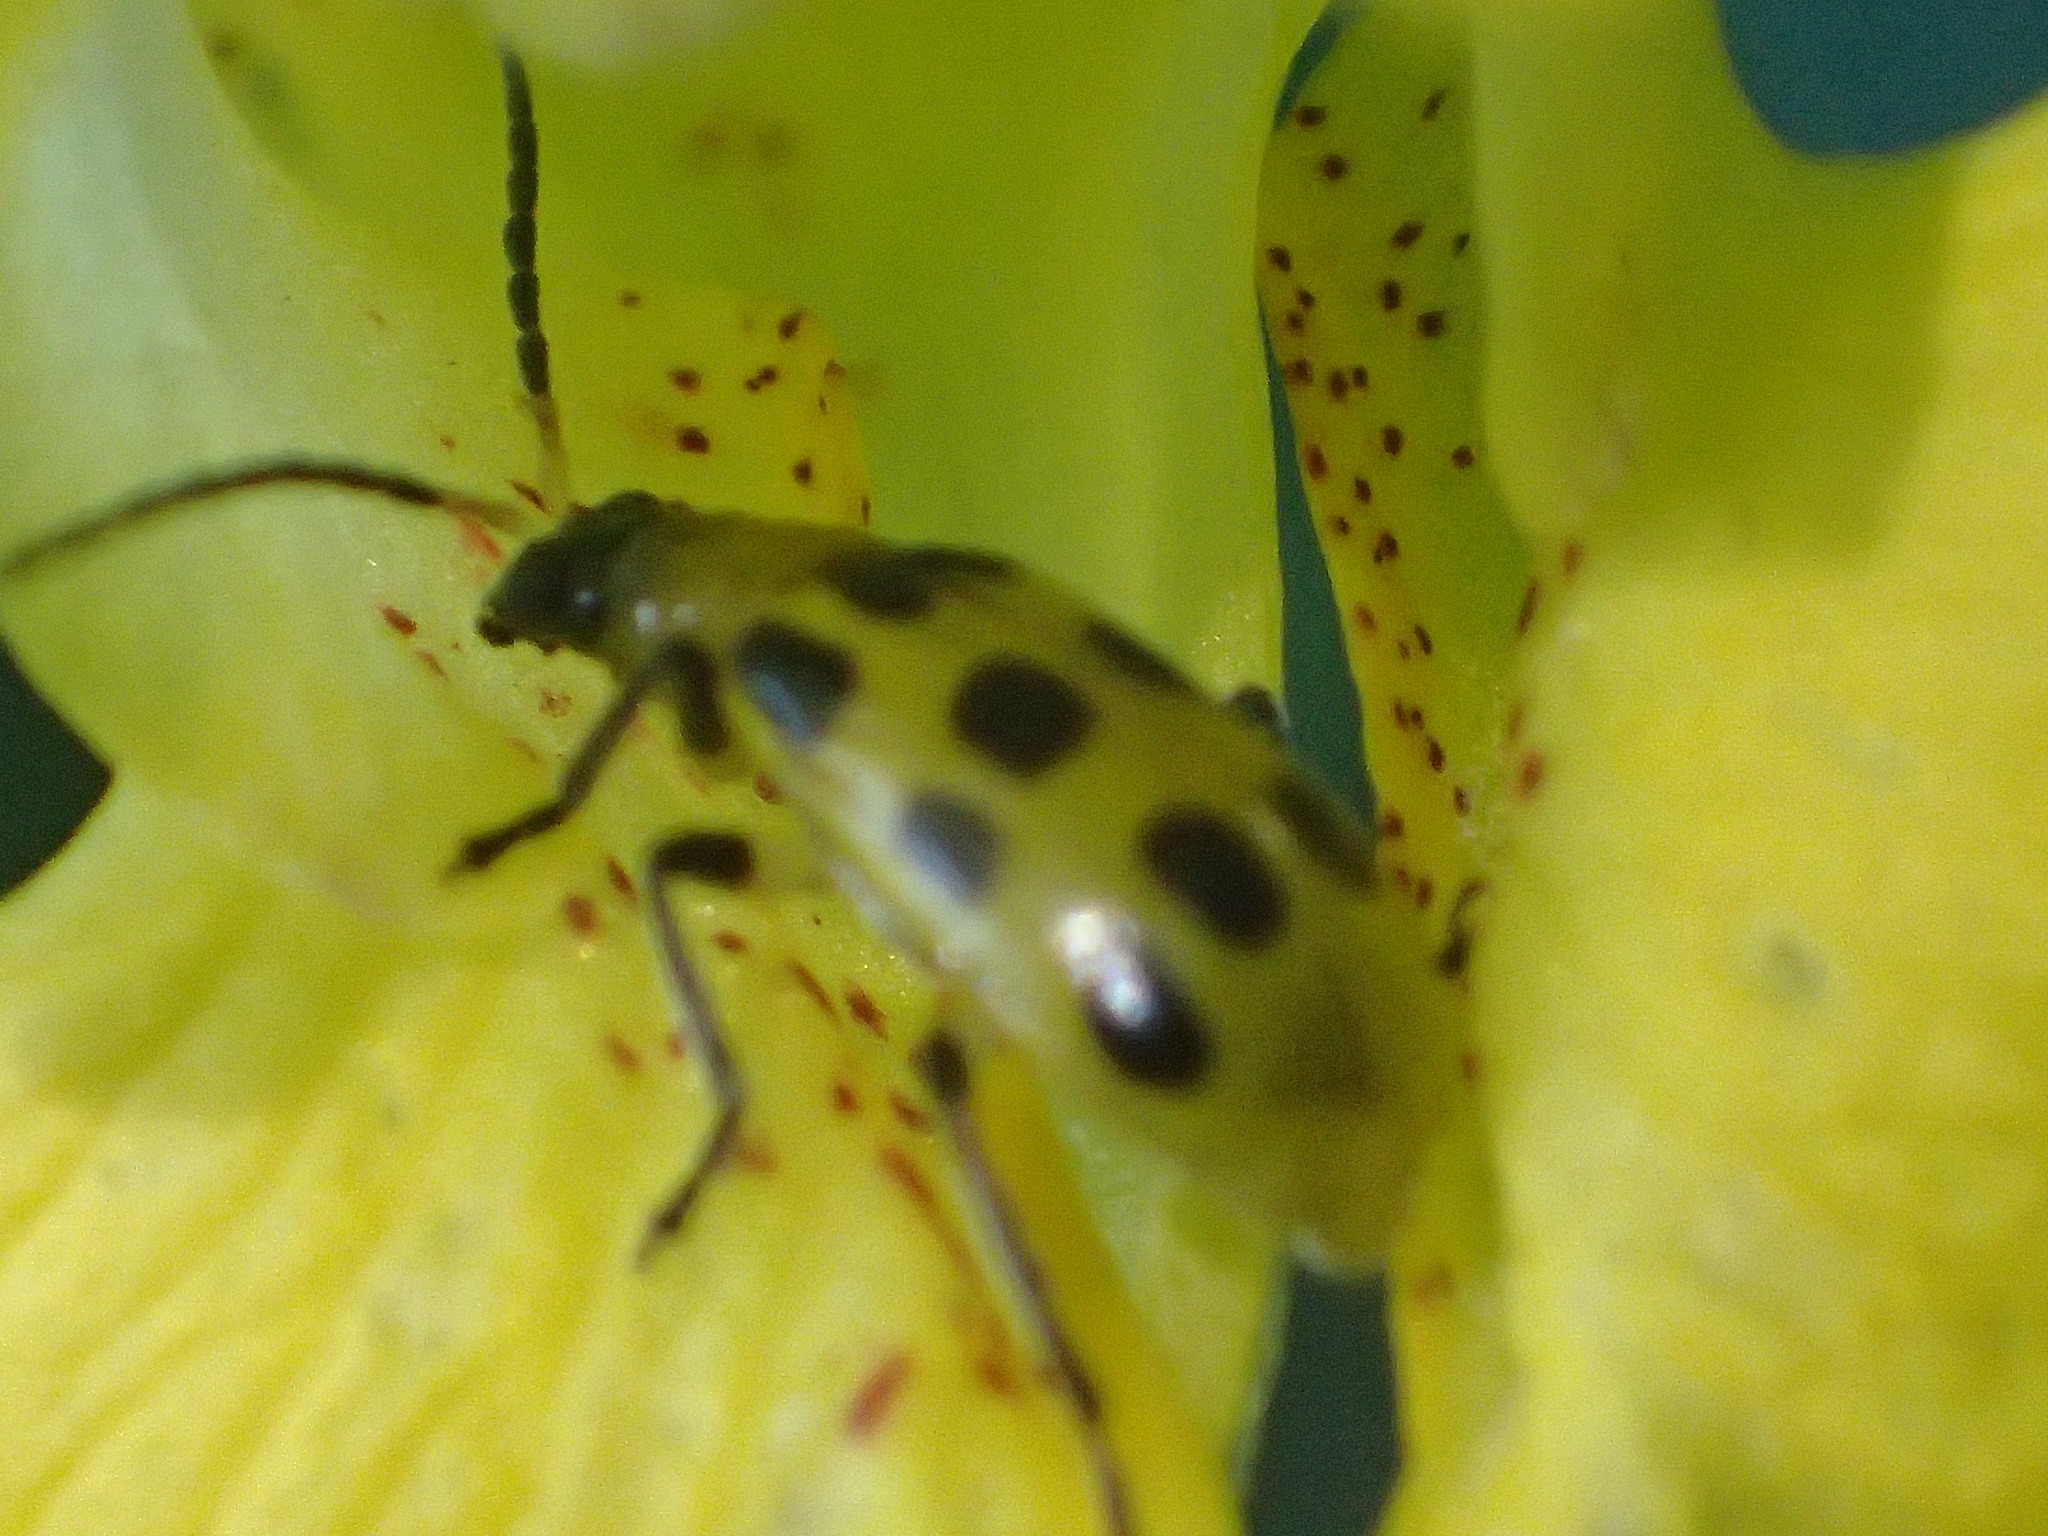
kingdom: Animalia
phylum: Arthropoda
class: Insecta
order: Coleoptera
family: Chrysomelidae
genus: Diabrotica
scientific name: Diabrotica undecimpunctata
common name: Spotted cucumber beetle
